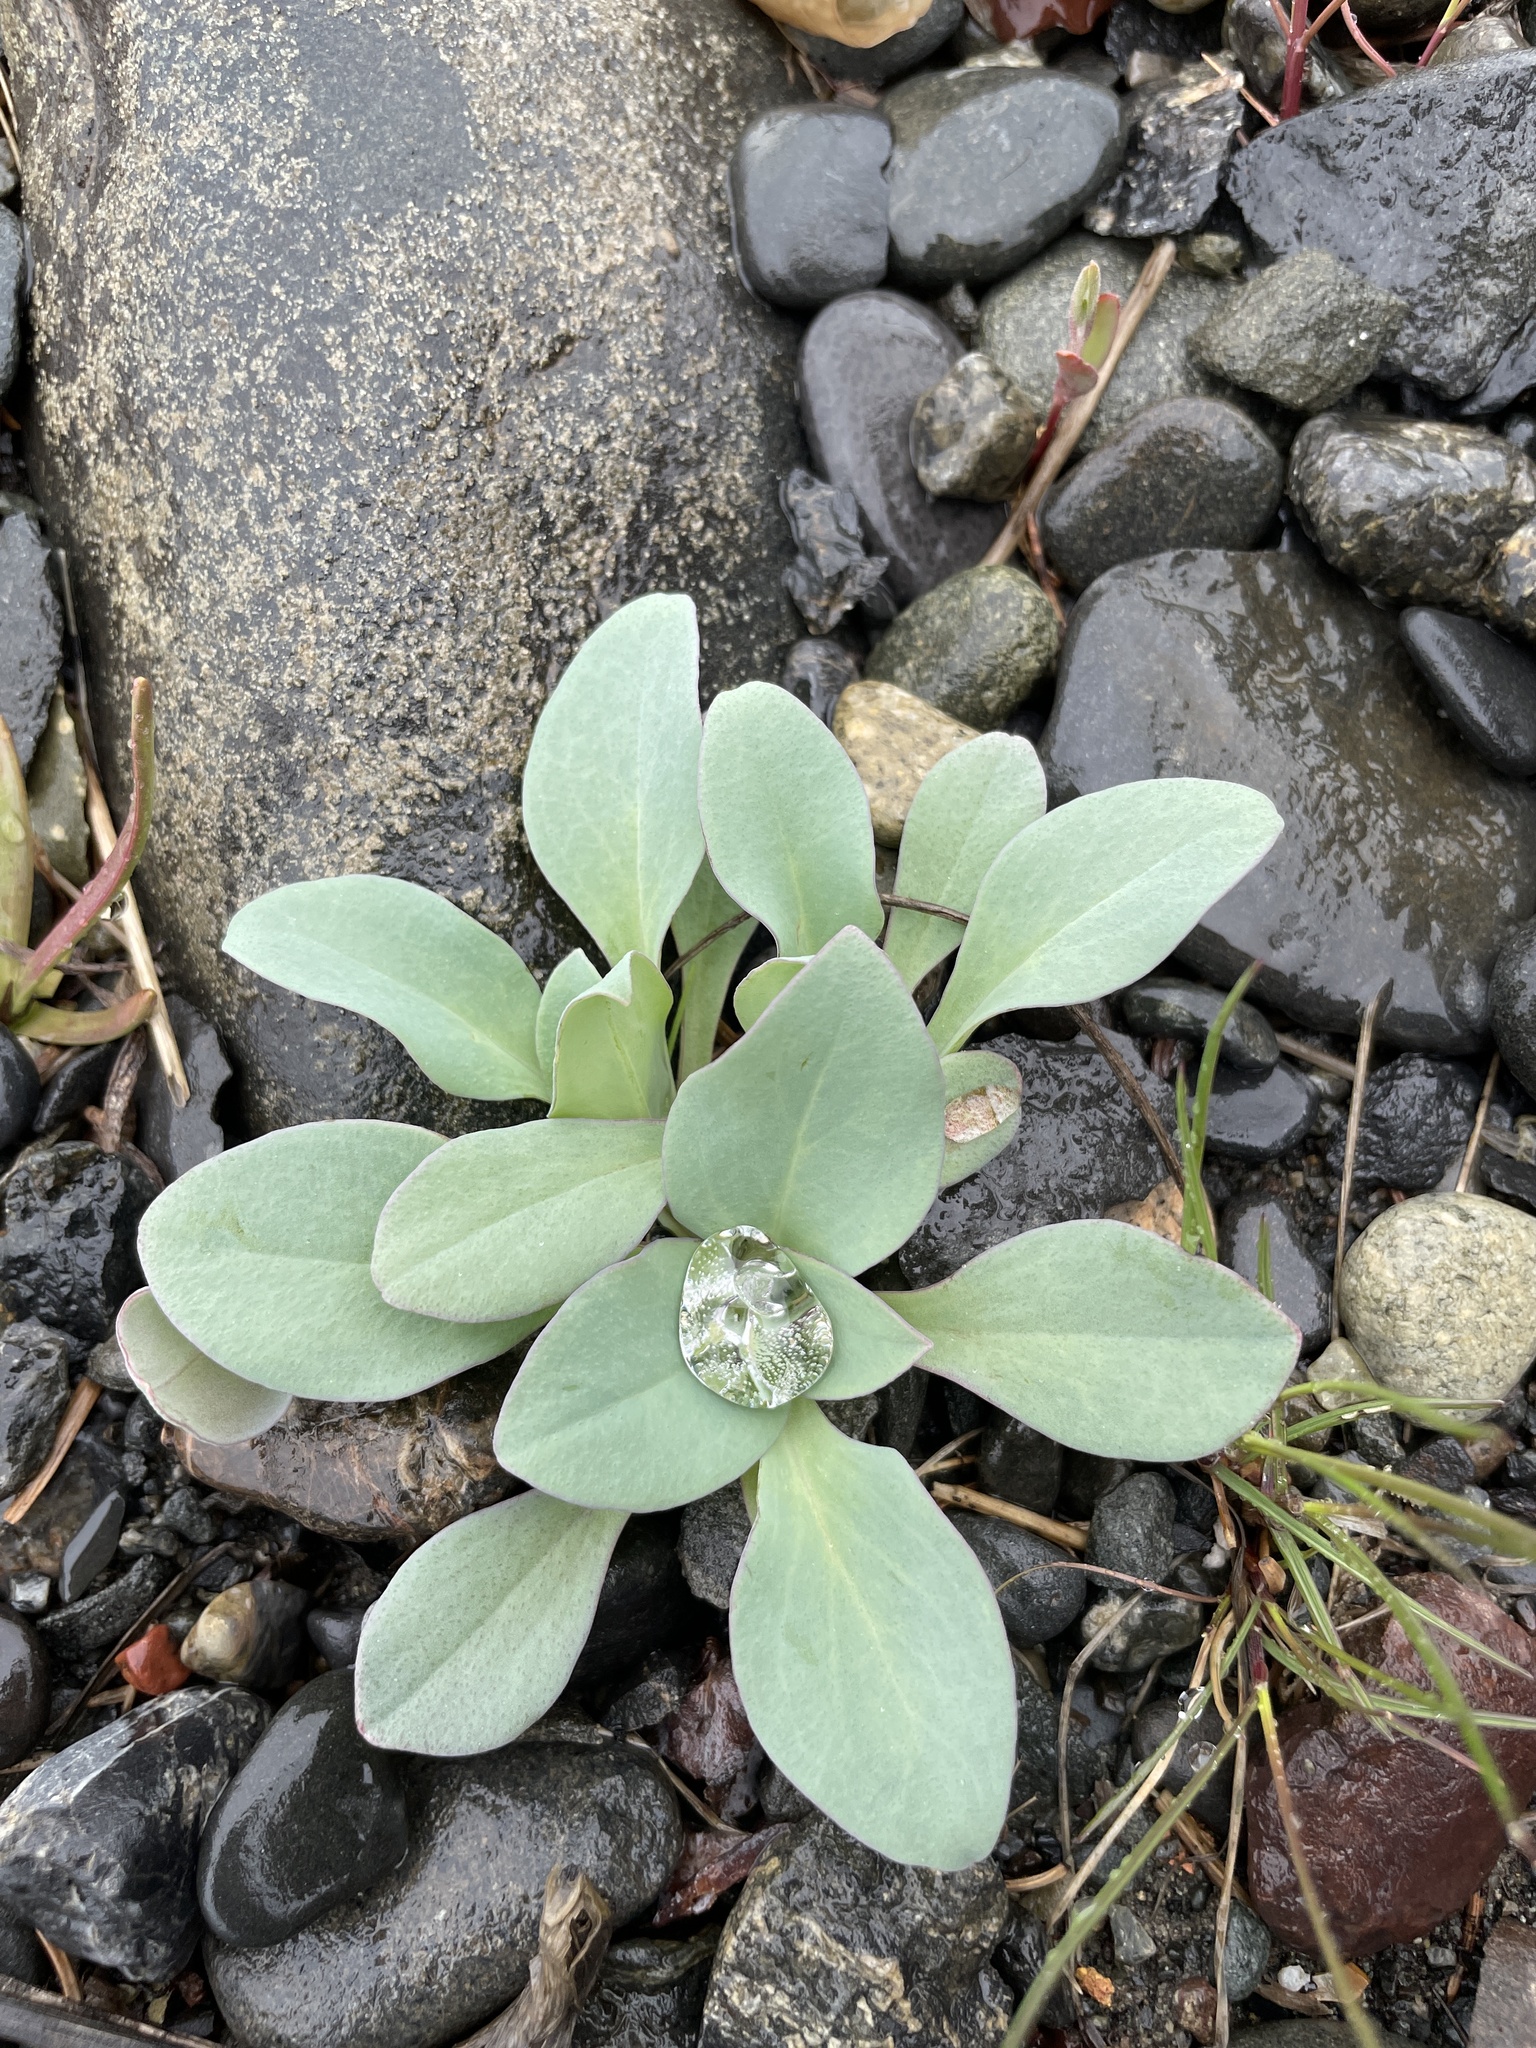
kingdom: Plantae
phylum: Tracheophyta
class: Magnoliopsida
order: Boraginales
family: Boraginaceae
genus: Mertensia
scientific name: Mertensia maritima
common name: Oysterplant
